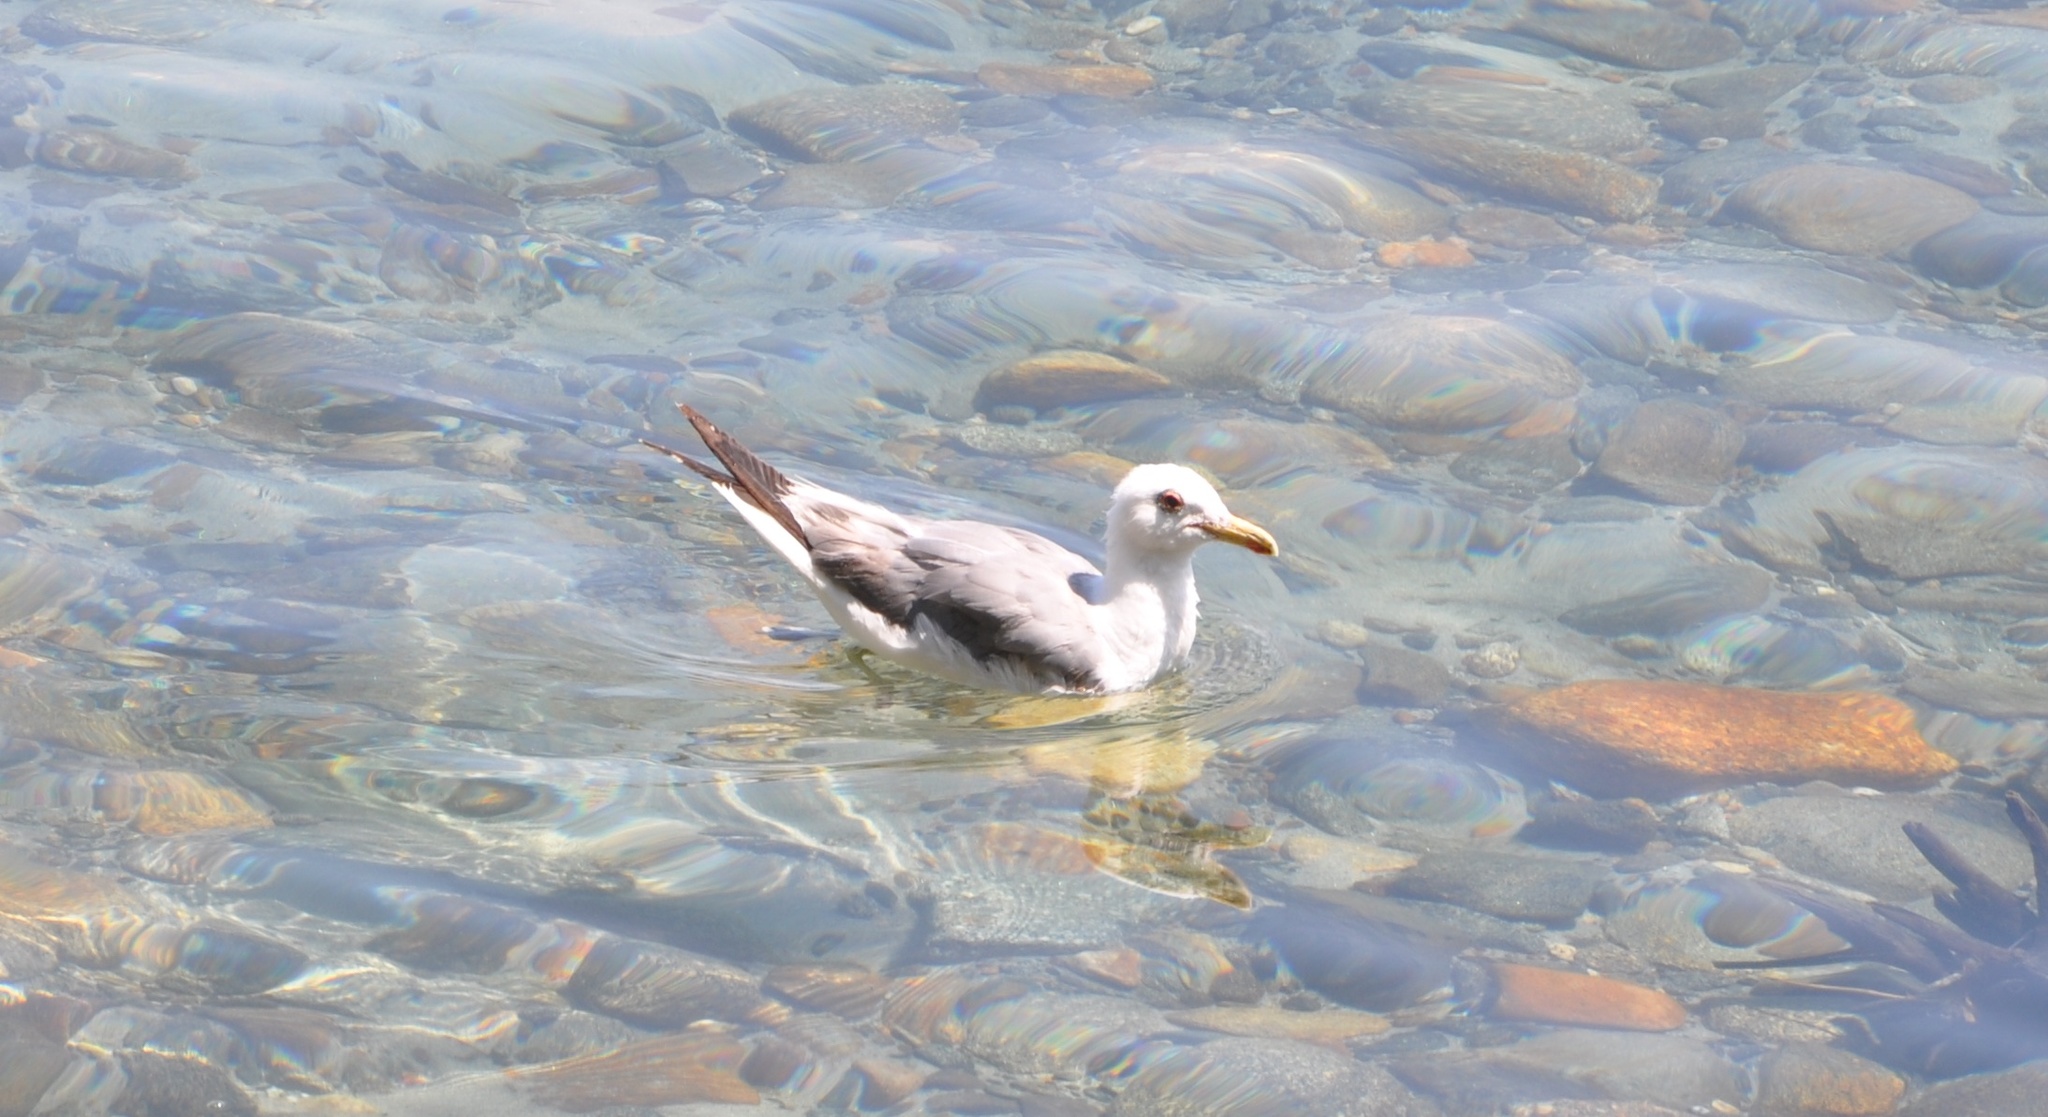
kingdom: Animalia
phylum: Chordata
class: Aves
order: Charadriiformes
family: Laridae
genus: Larus
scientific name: Larus californicus
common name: California gull
